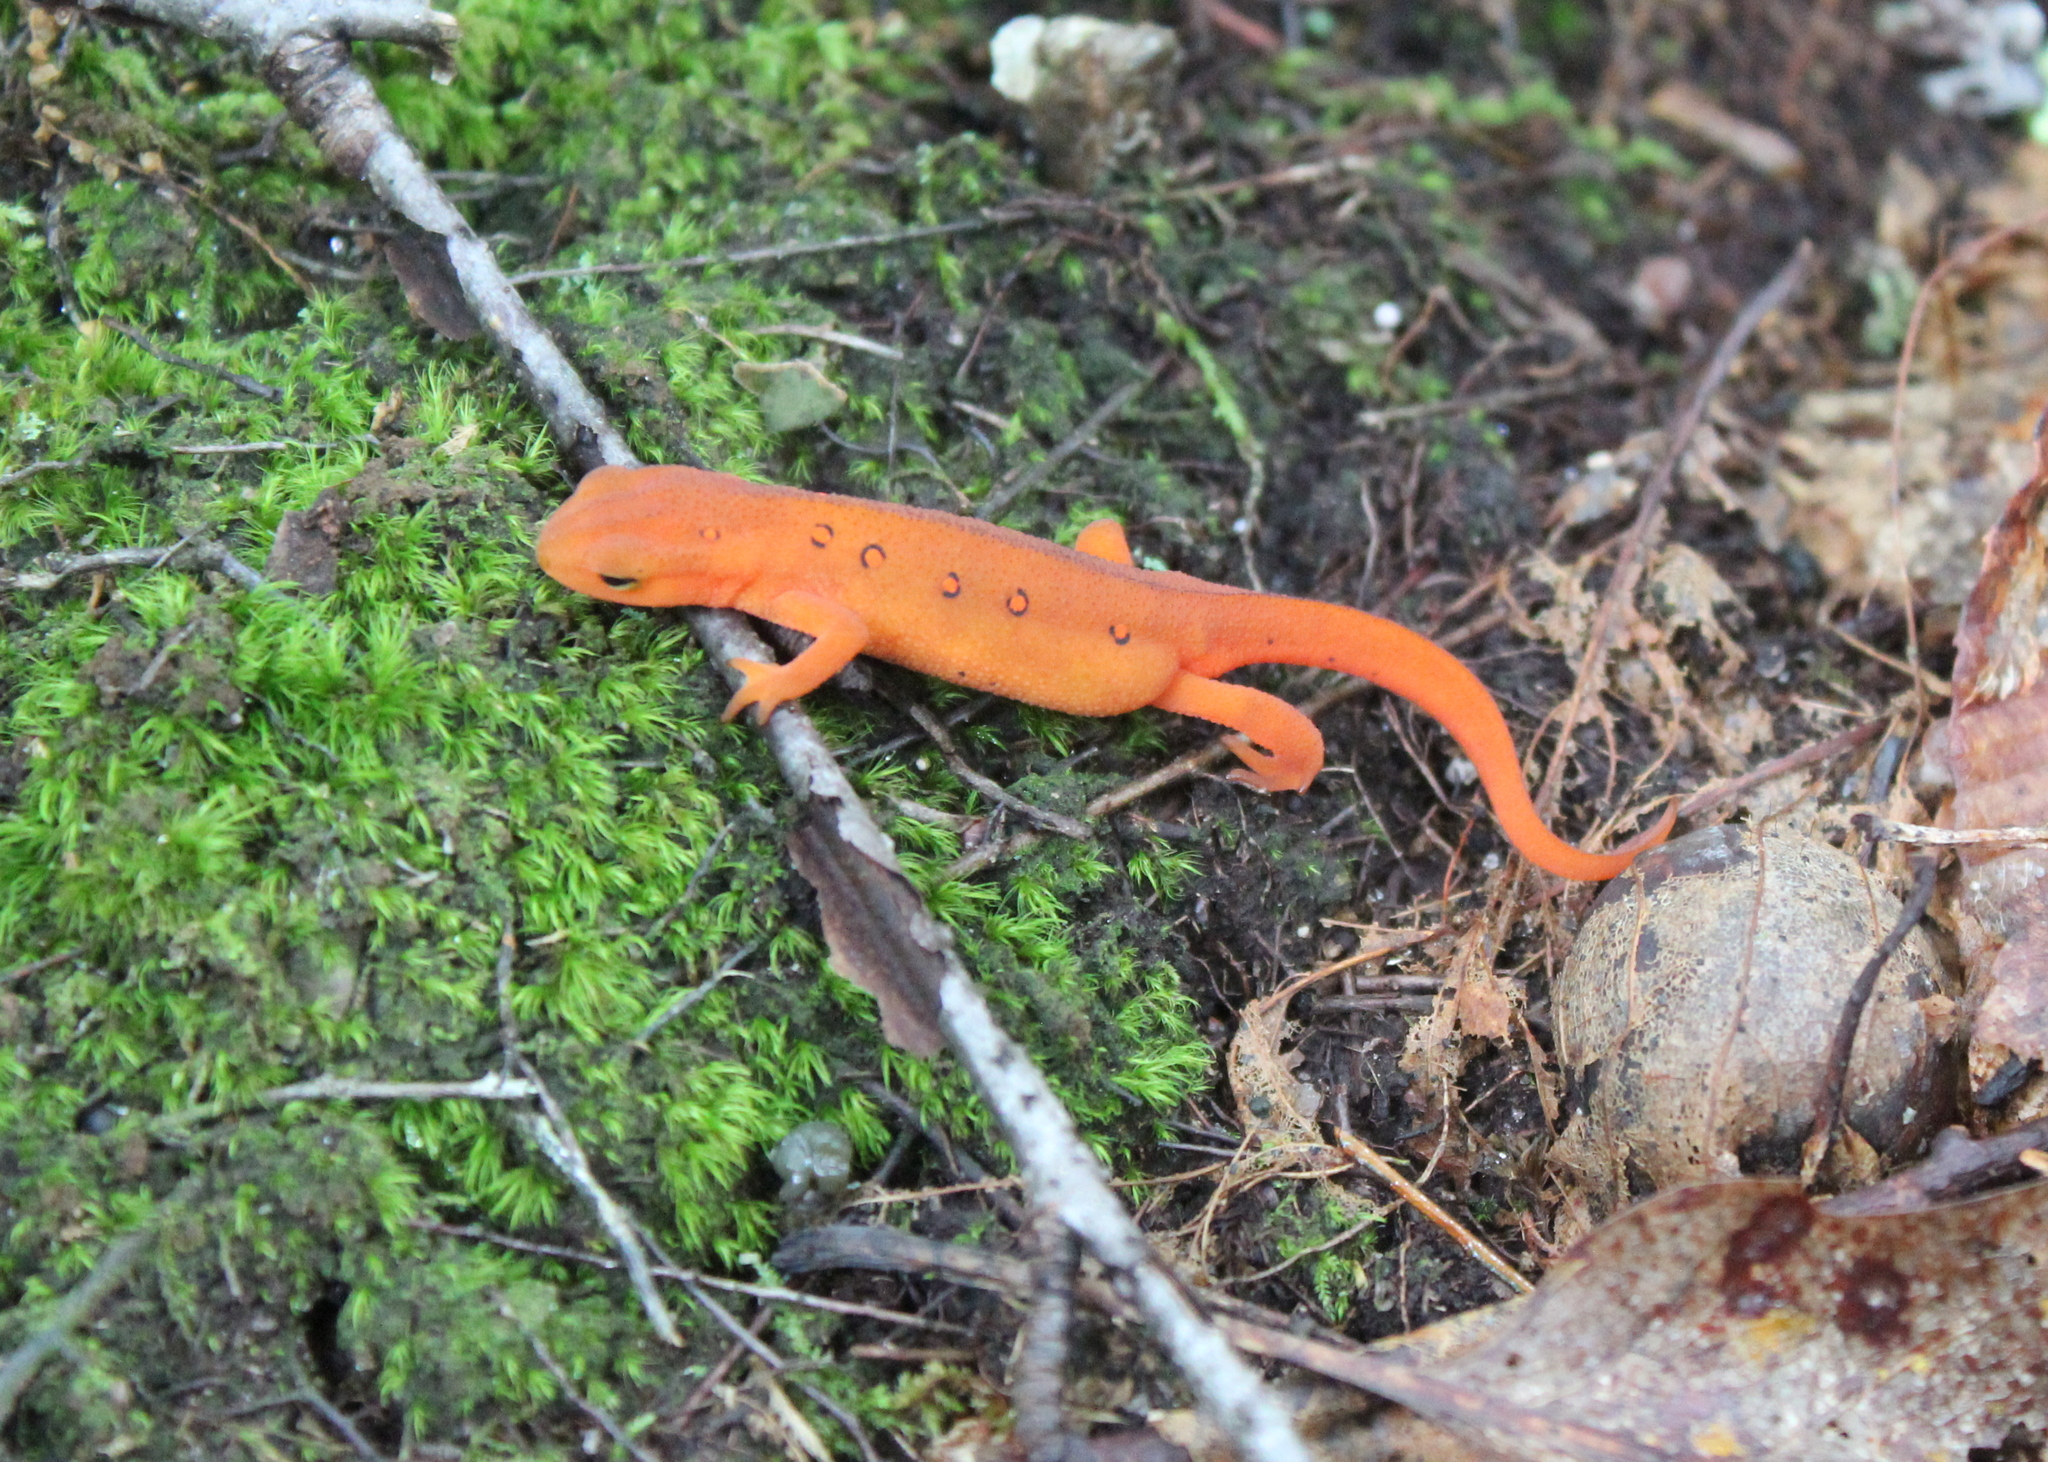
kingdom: Animalia
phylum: Chordata
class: Amphibia
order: Caudata
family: Salamandridae
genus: Notophthalmus
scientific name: Notophthalmus viridescens
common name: Eastern newt
